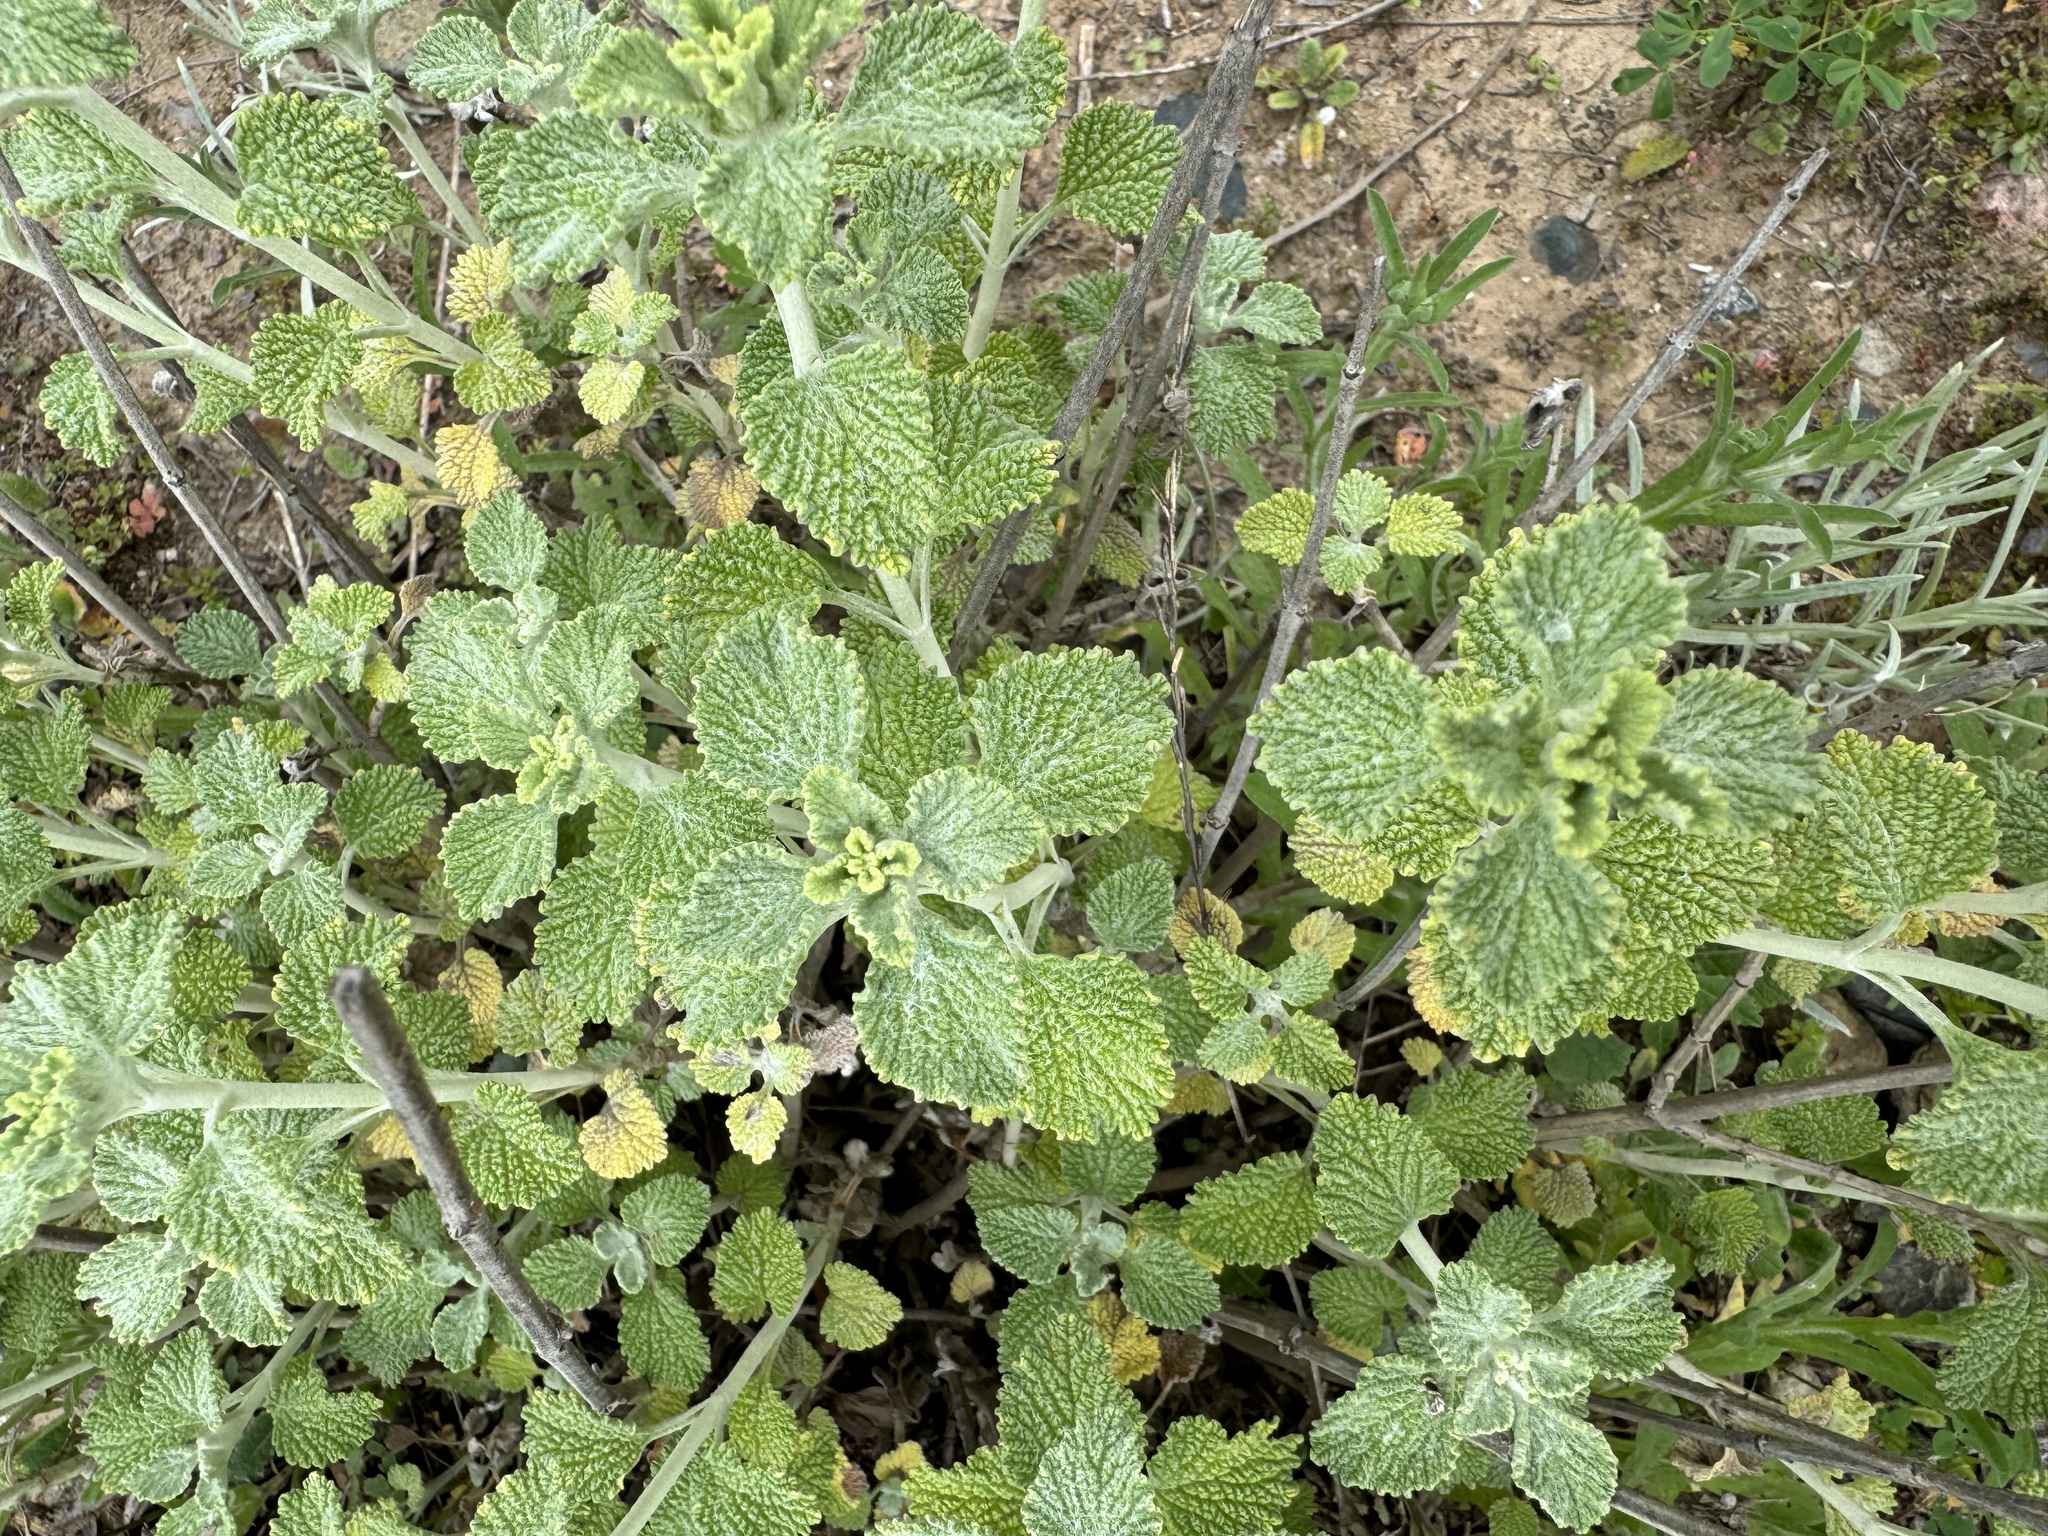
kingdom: Plantae
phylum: Tracheophyta
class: Magnoliopsida
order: Lamiales
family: Lamiaceae
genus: Marrubium
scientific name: Marrubium vulgare
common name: Horehound
